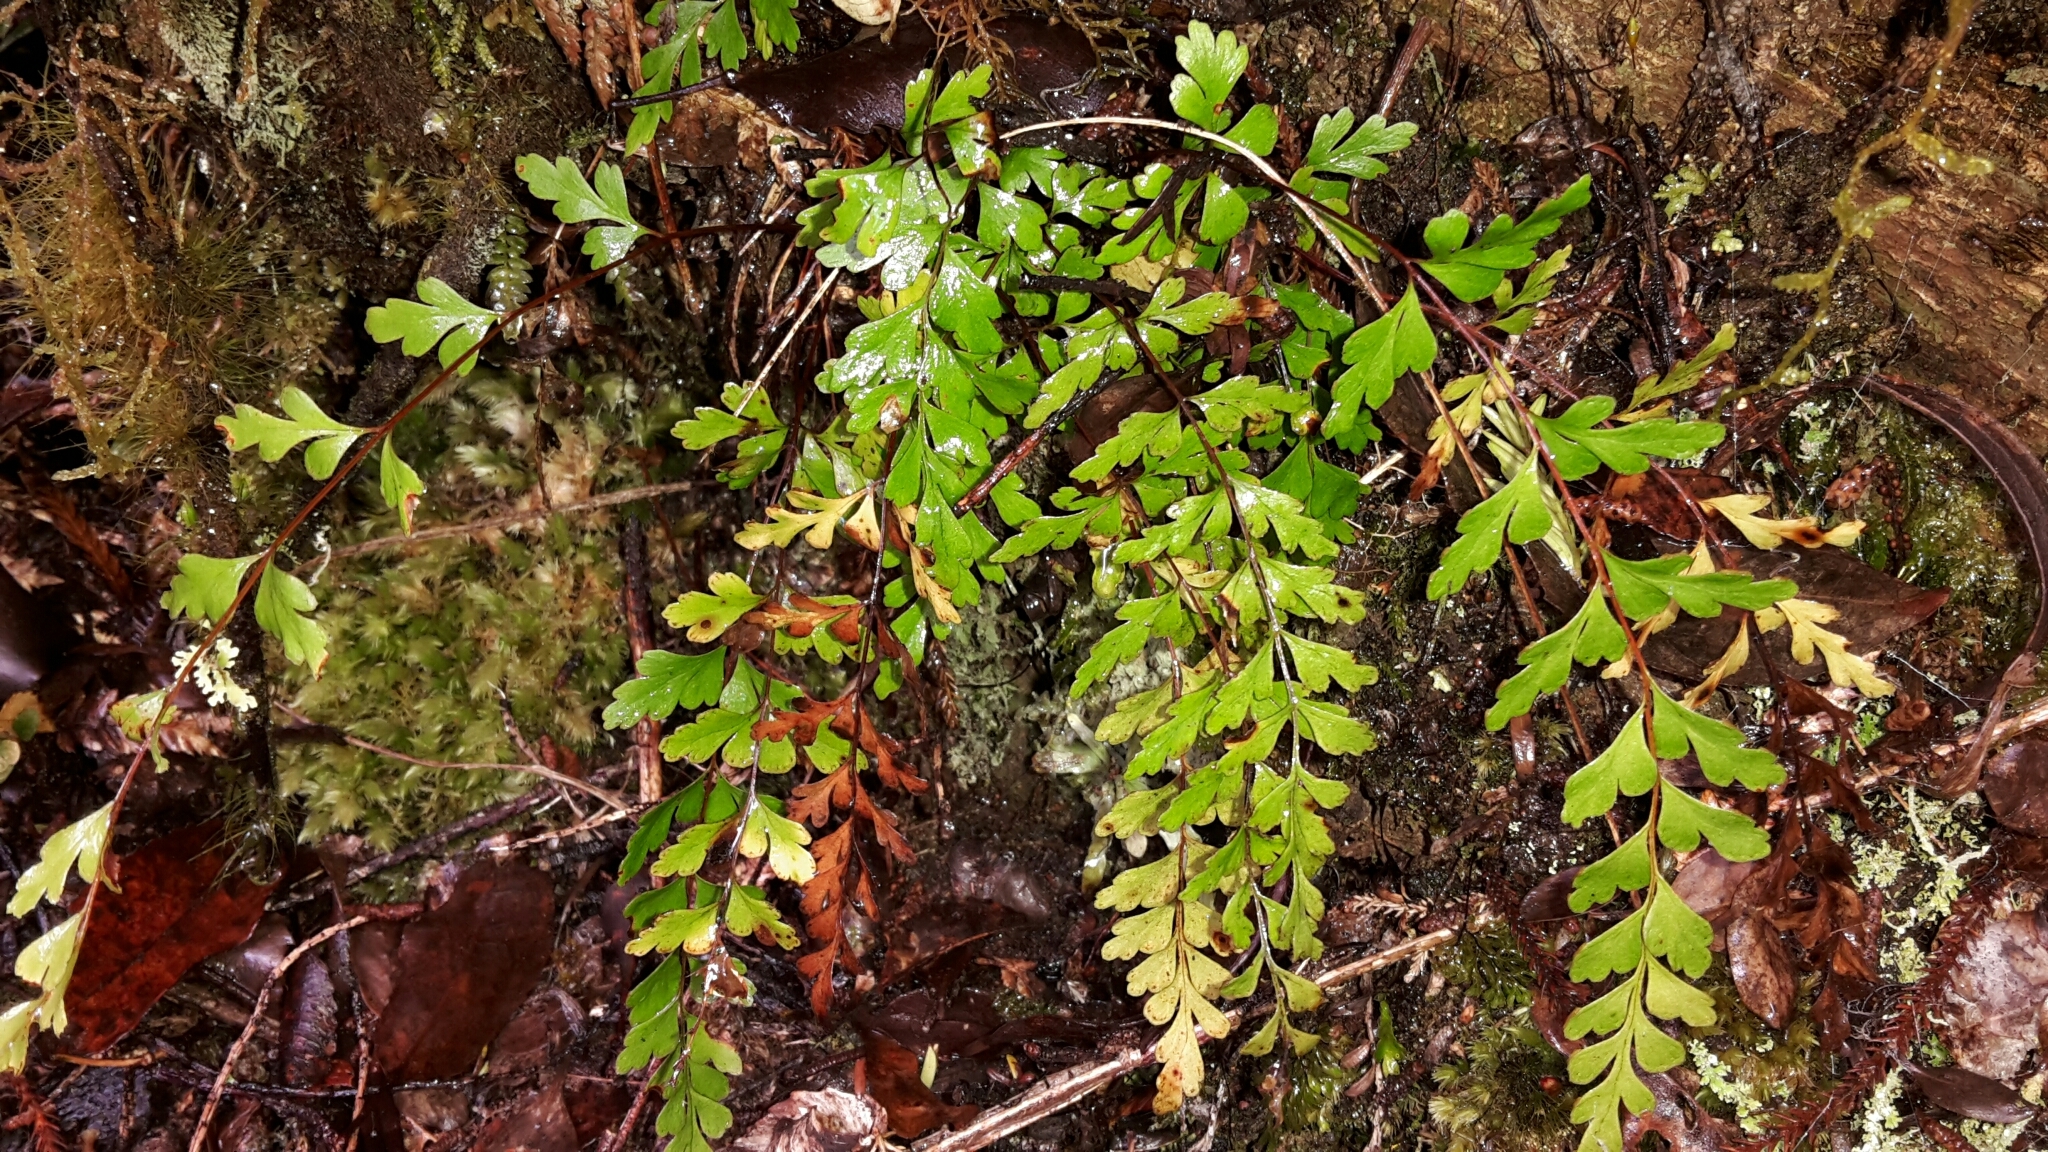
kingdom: Plantae
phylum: Tracheophyta
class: Polypodiopsida
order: Polypodiales
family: Lindsaeaceae
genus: Lindsaea
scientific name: Lindsaea trichomanoides
